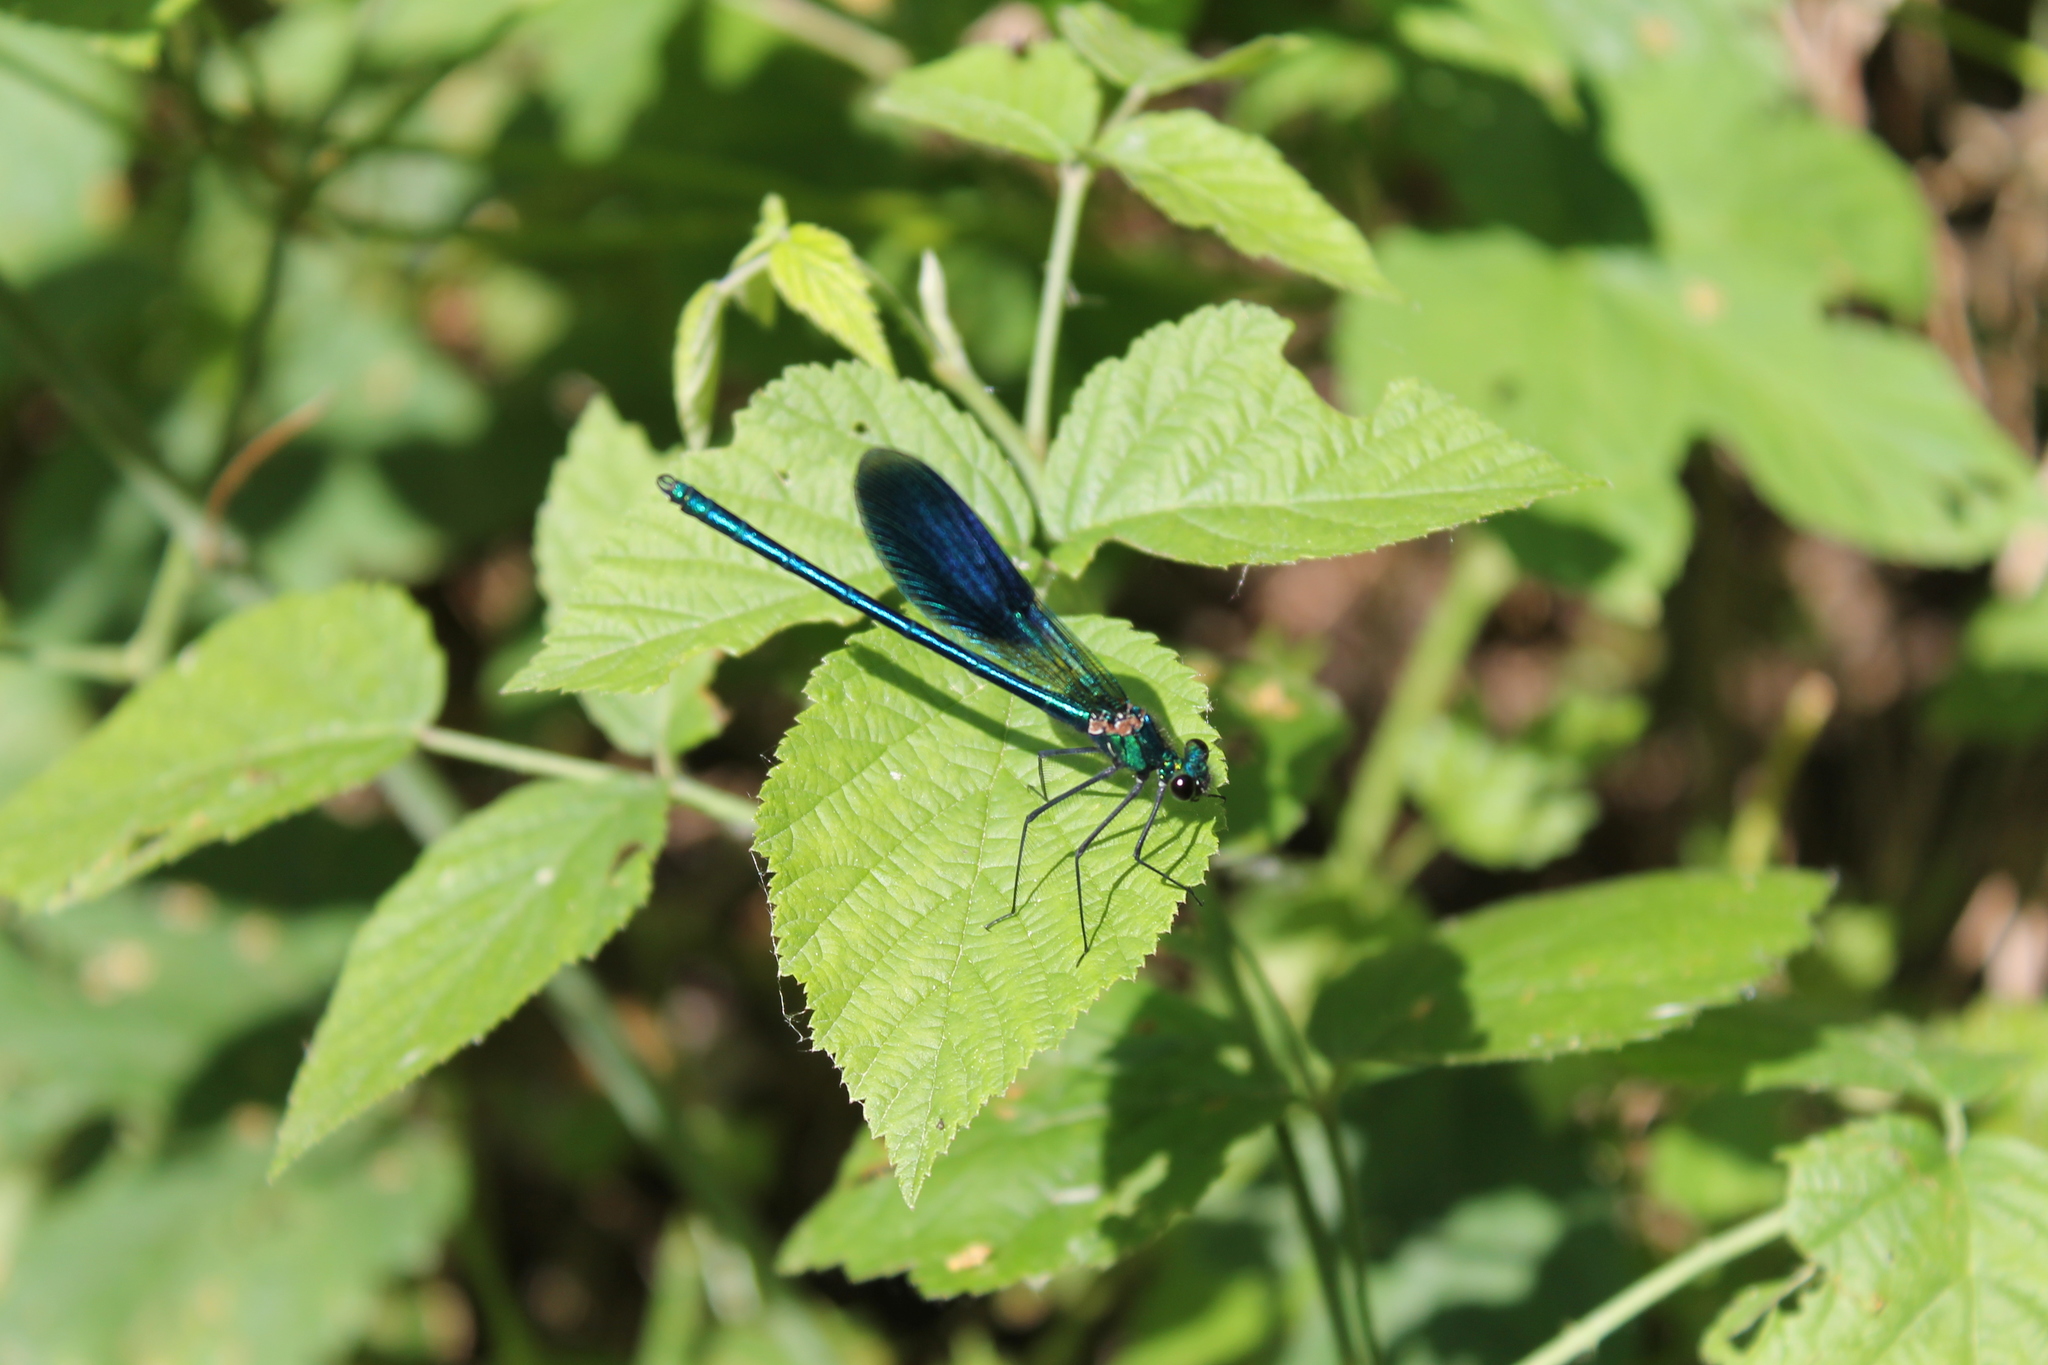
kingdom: Animalia
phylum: Arthropoda
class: Insecta
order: Odonata
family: Calopterygidae
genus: Calopteryx
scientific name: Calopteryx splendens
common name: Banded demoiselle
